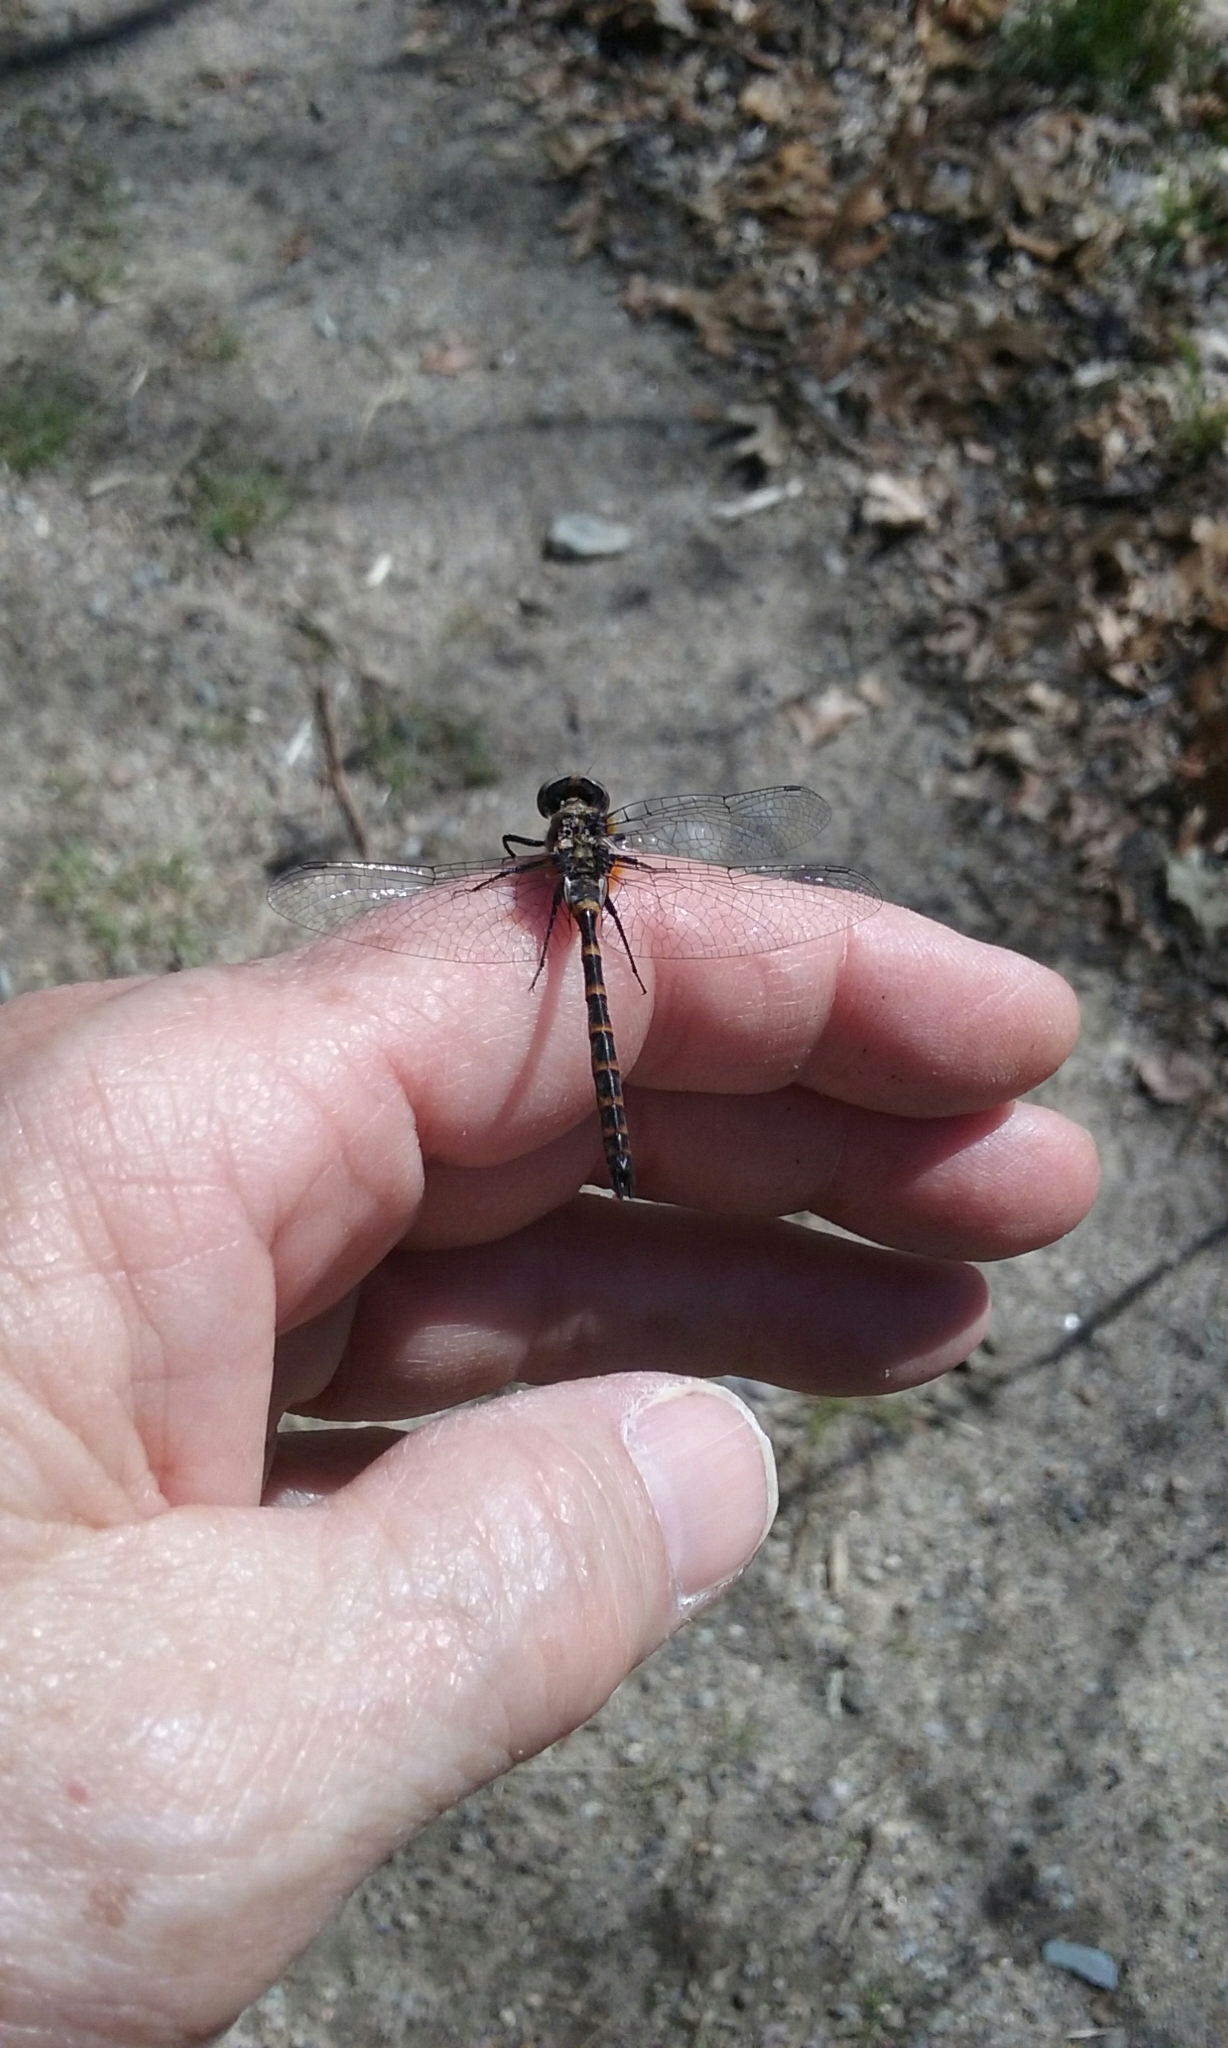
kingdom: Animalia
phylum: Arthropoda
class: Insecta
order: Odonata
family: Corduliidae
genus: Williamsonia
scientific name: Williamsonia lintneri
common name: Ringed boghaunter
